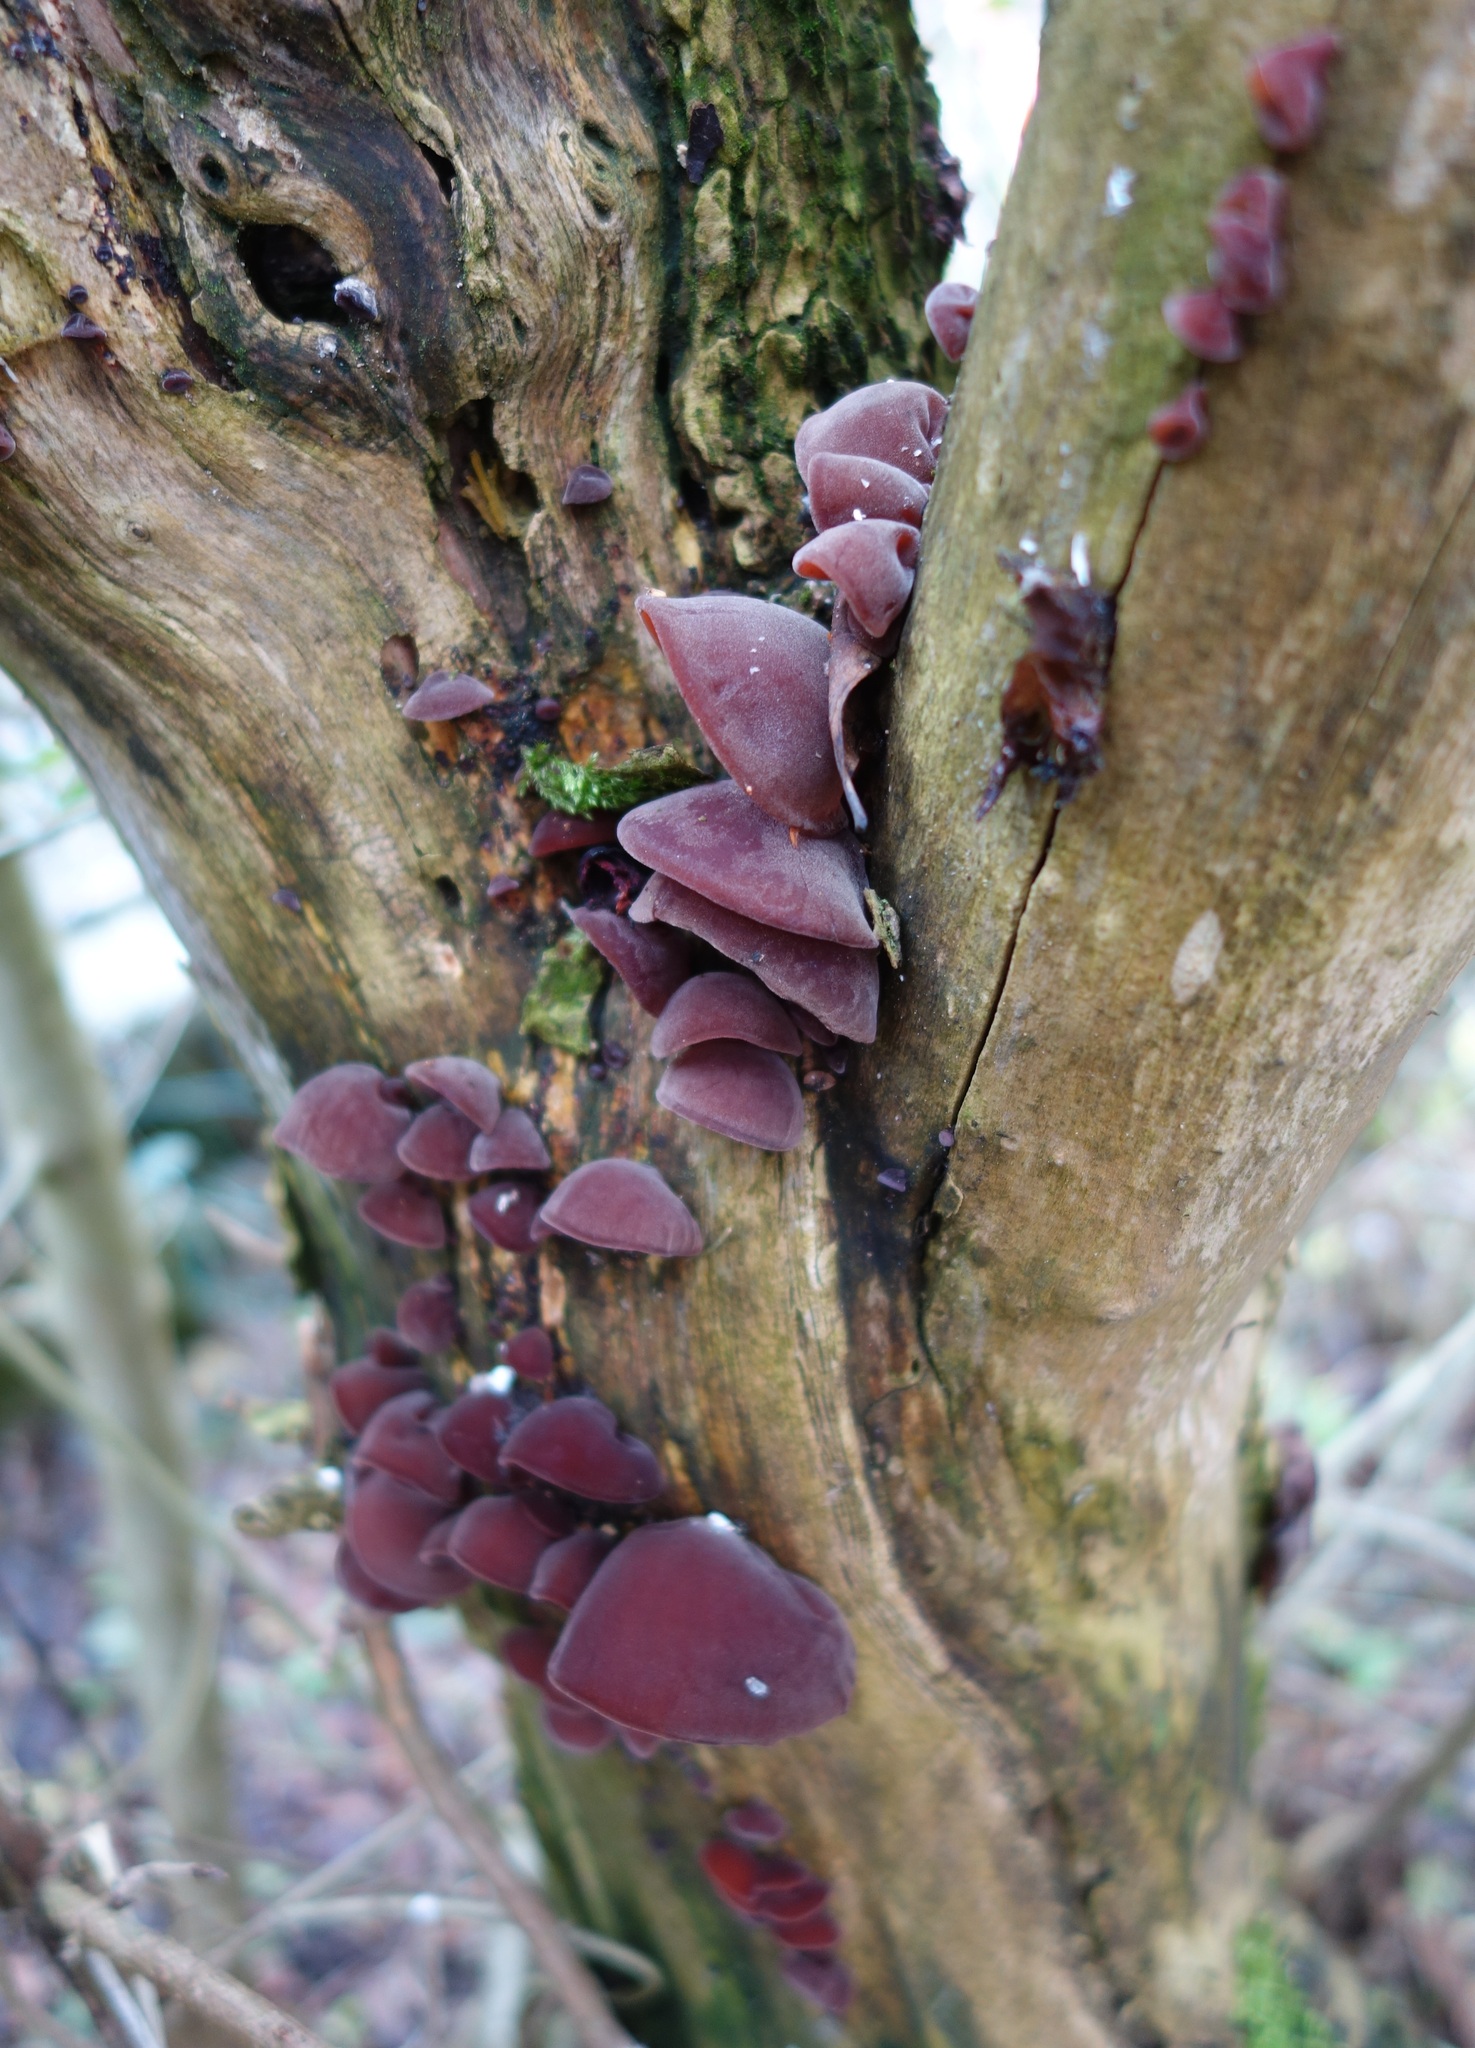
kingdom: Fungi
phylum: Basidiomycota
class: Agaricomycetes
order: Auriculariales
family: Auriculariaceae
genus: Auricularia
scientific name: Auricularia auricula-judae
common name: Jelly ear
